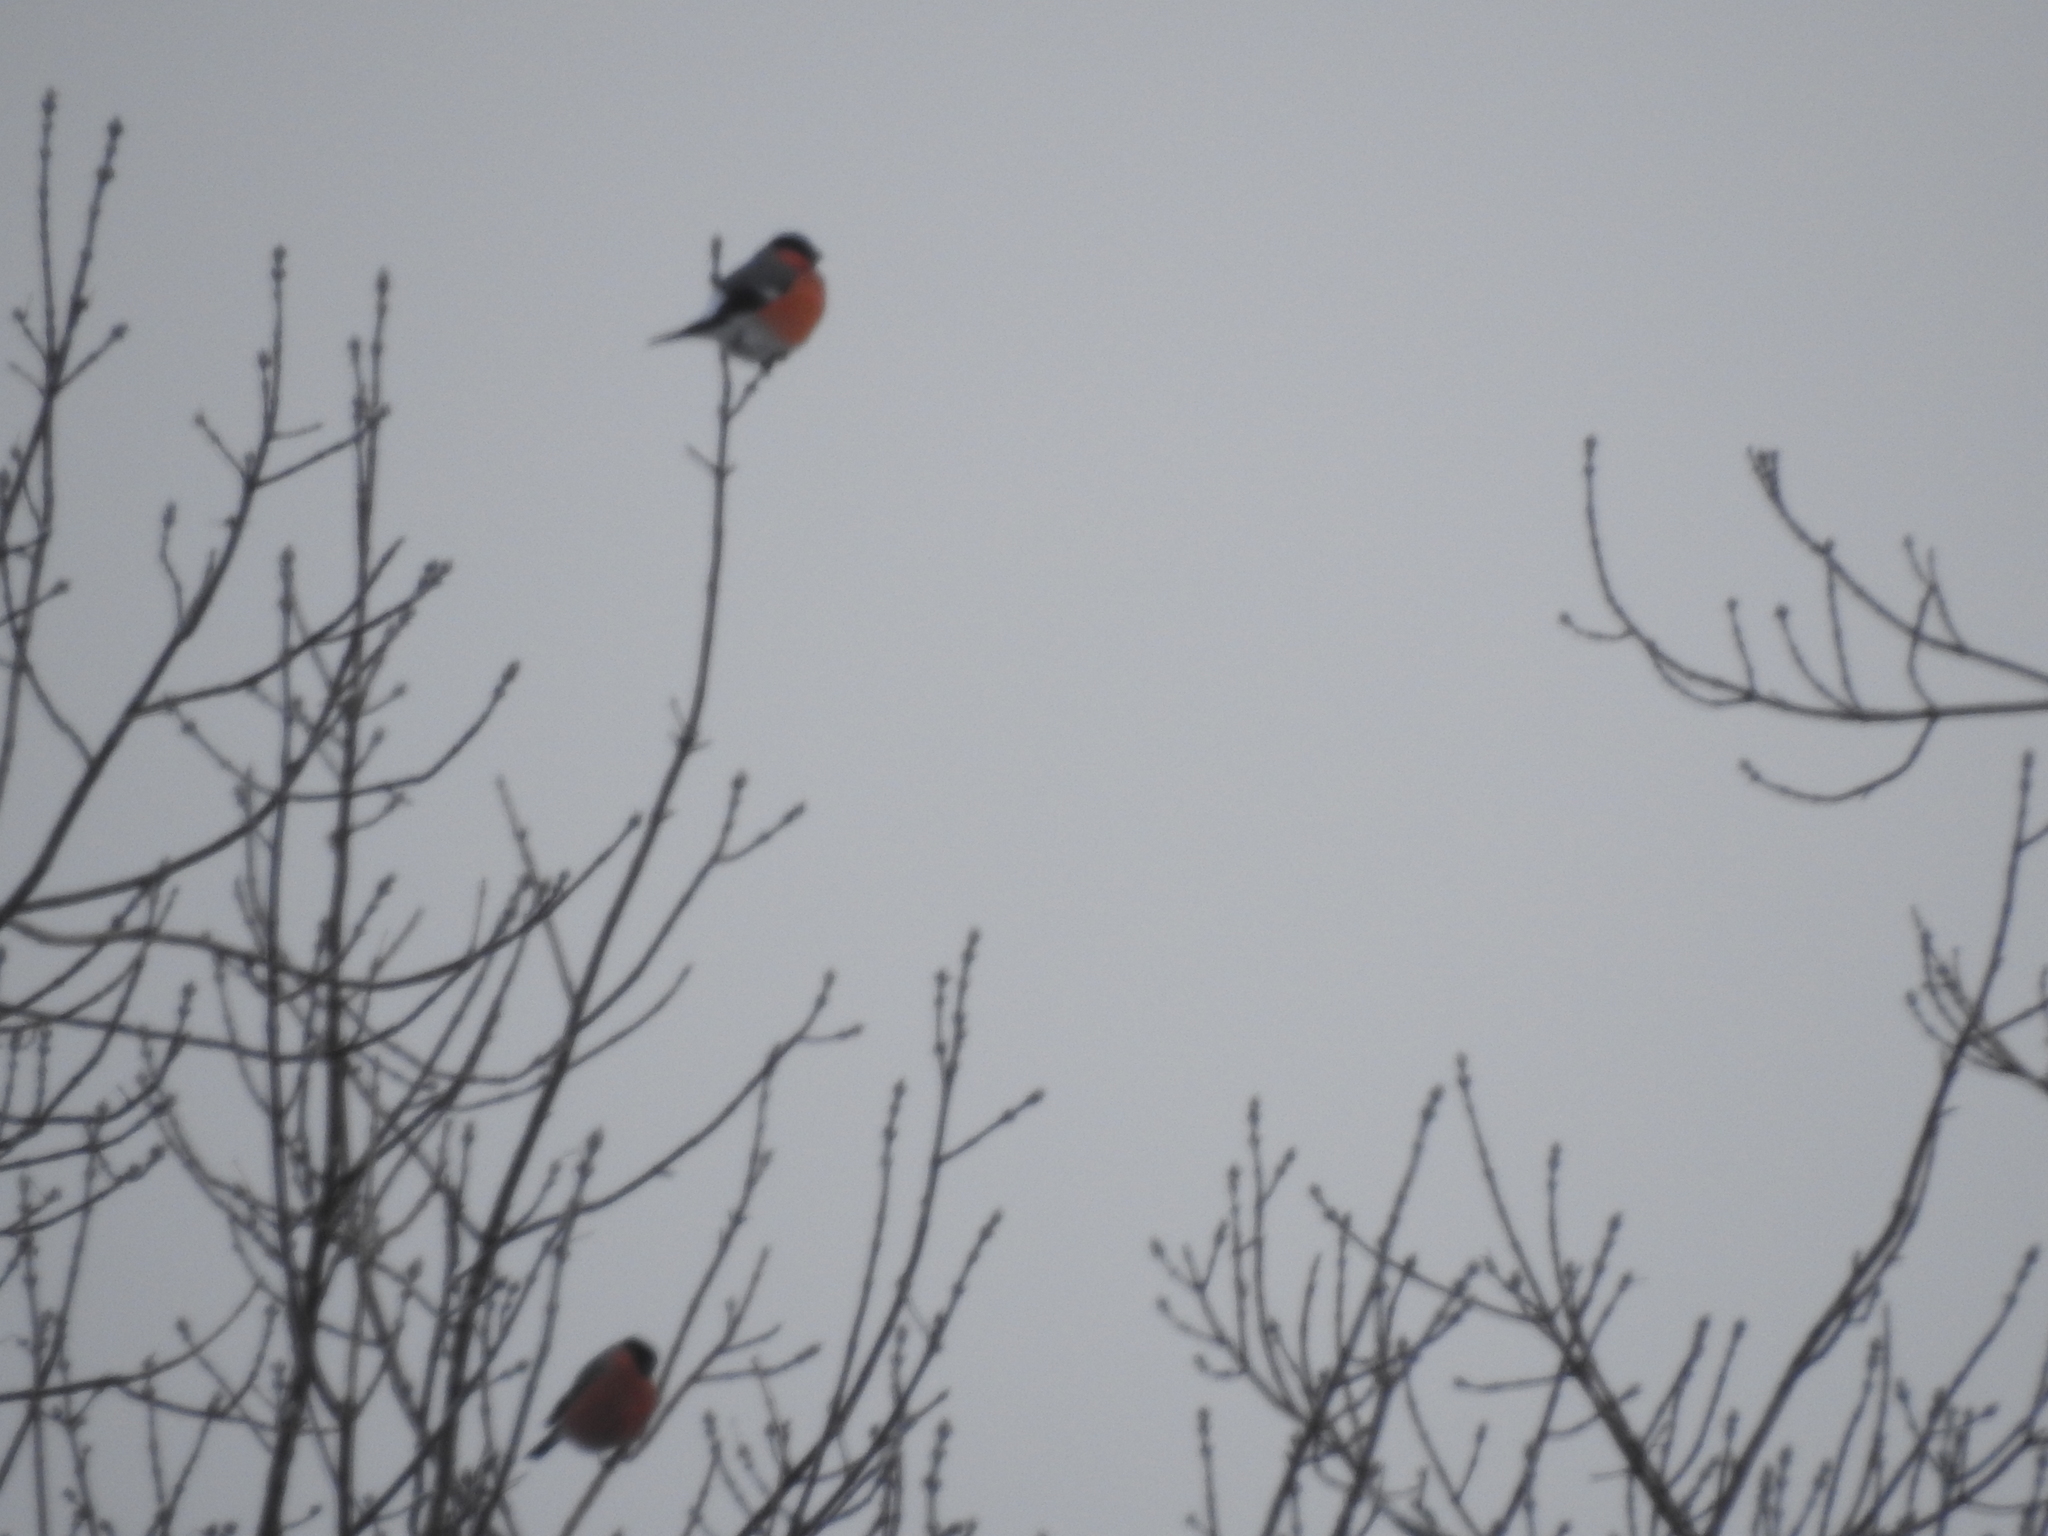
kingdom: Animalia
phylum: Chordata
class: Aves
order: Passeriformes
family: Fringillidae
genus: Pyrrhula
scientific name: Pyrrhula pyrrhula
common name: Eurasian bullfinch
